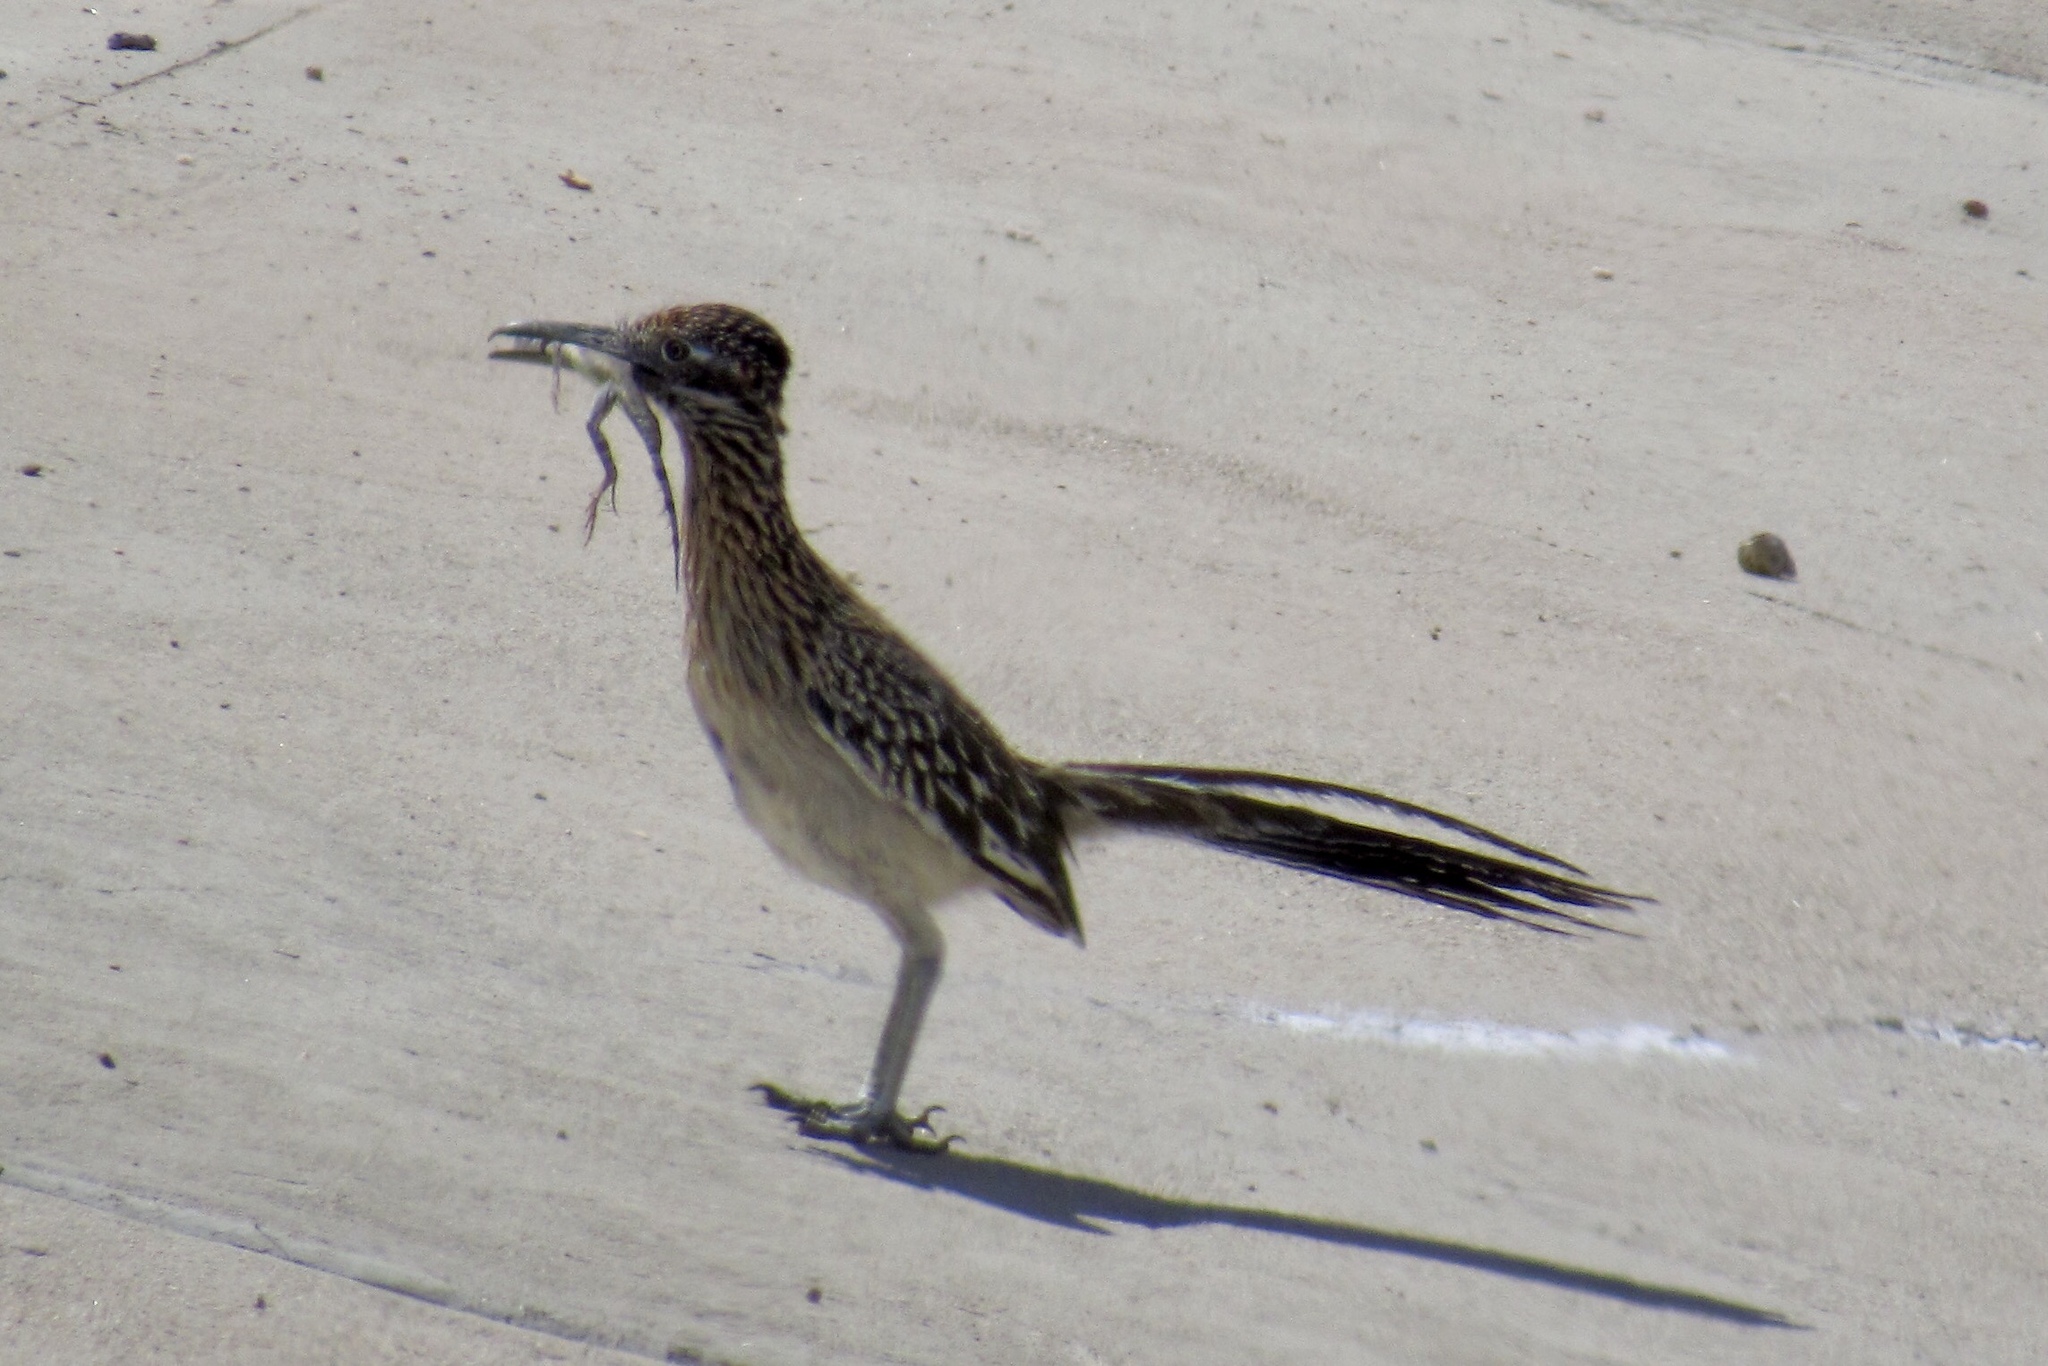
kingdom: Animalia
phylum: Chordata
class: Aves
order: Cuculiformes
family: Cuculidae
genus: Geococcyx
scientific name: Geococcyx californianus
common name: Greater roadrunner
